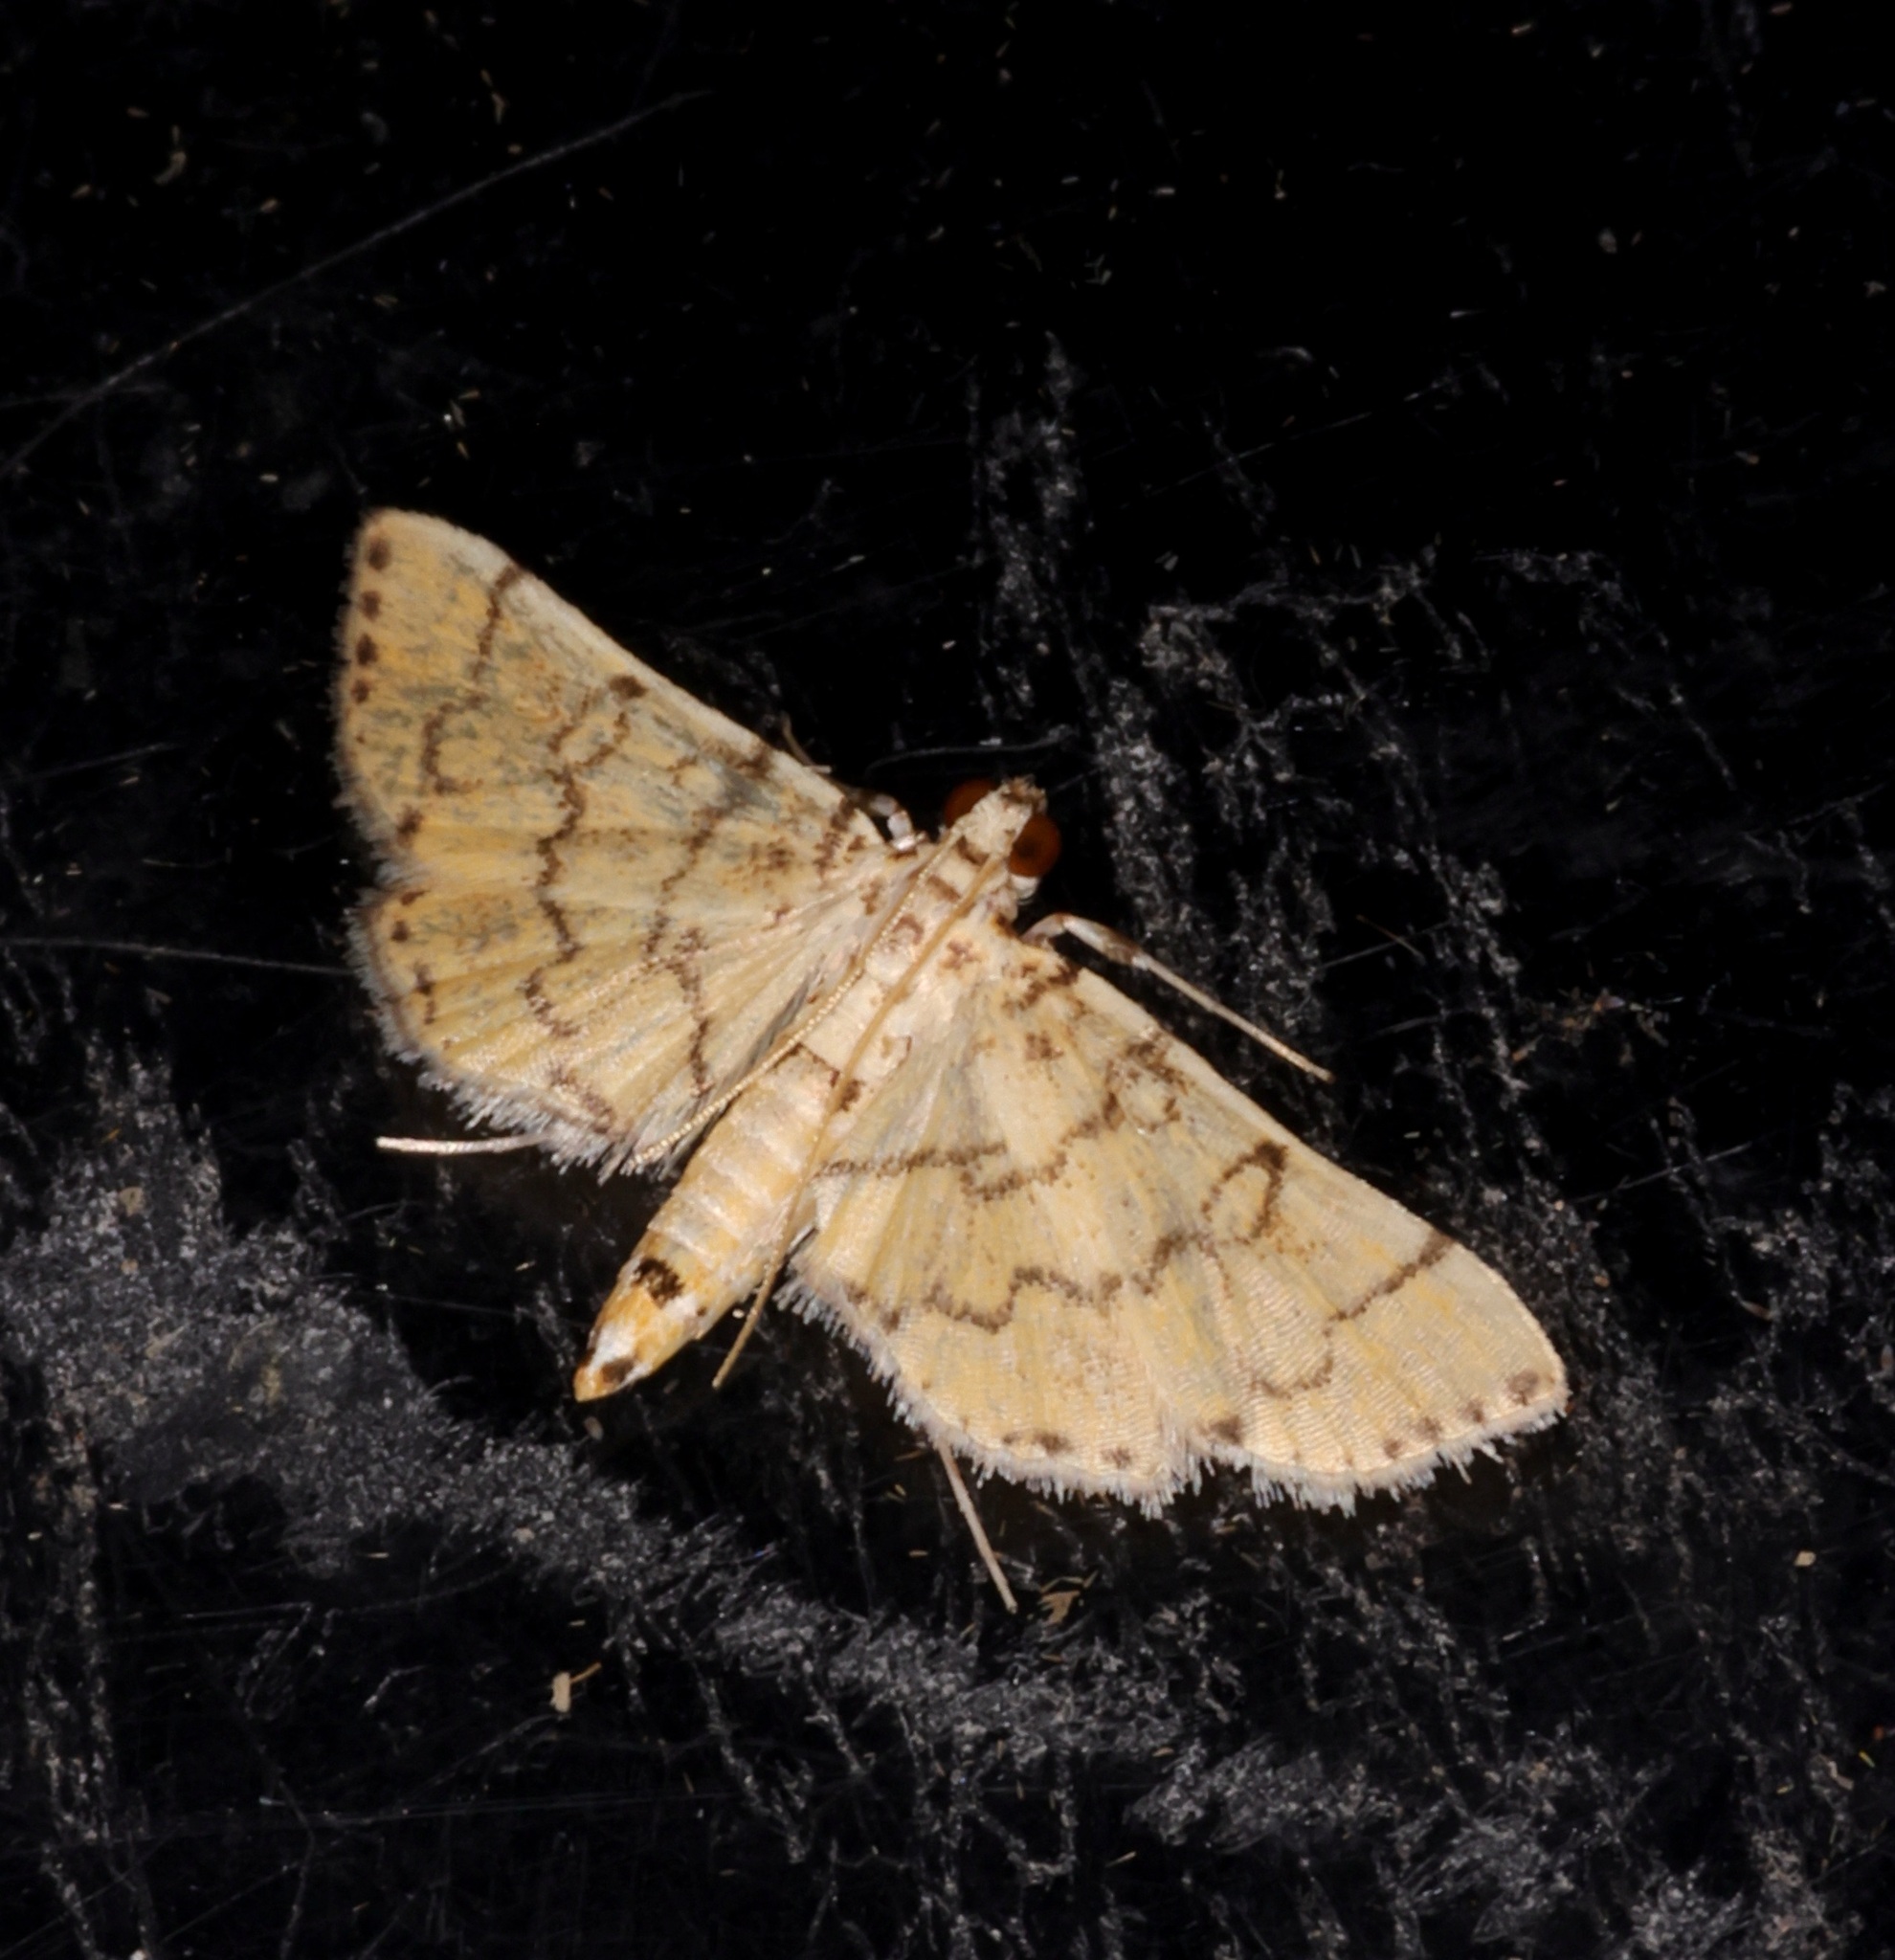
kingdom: Animalia
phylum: Arthropoda
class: Insecta
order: Lepidoptera
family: Crambidae
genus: Lamprosema
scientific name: Lamprosema tampiusalis
